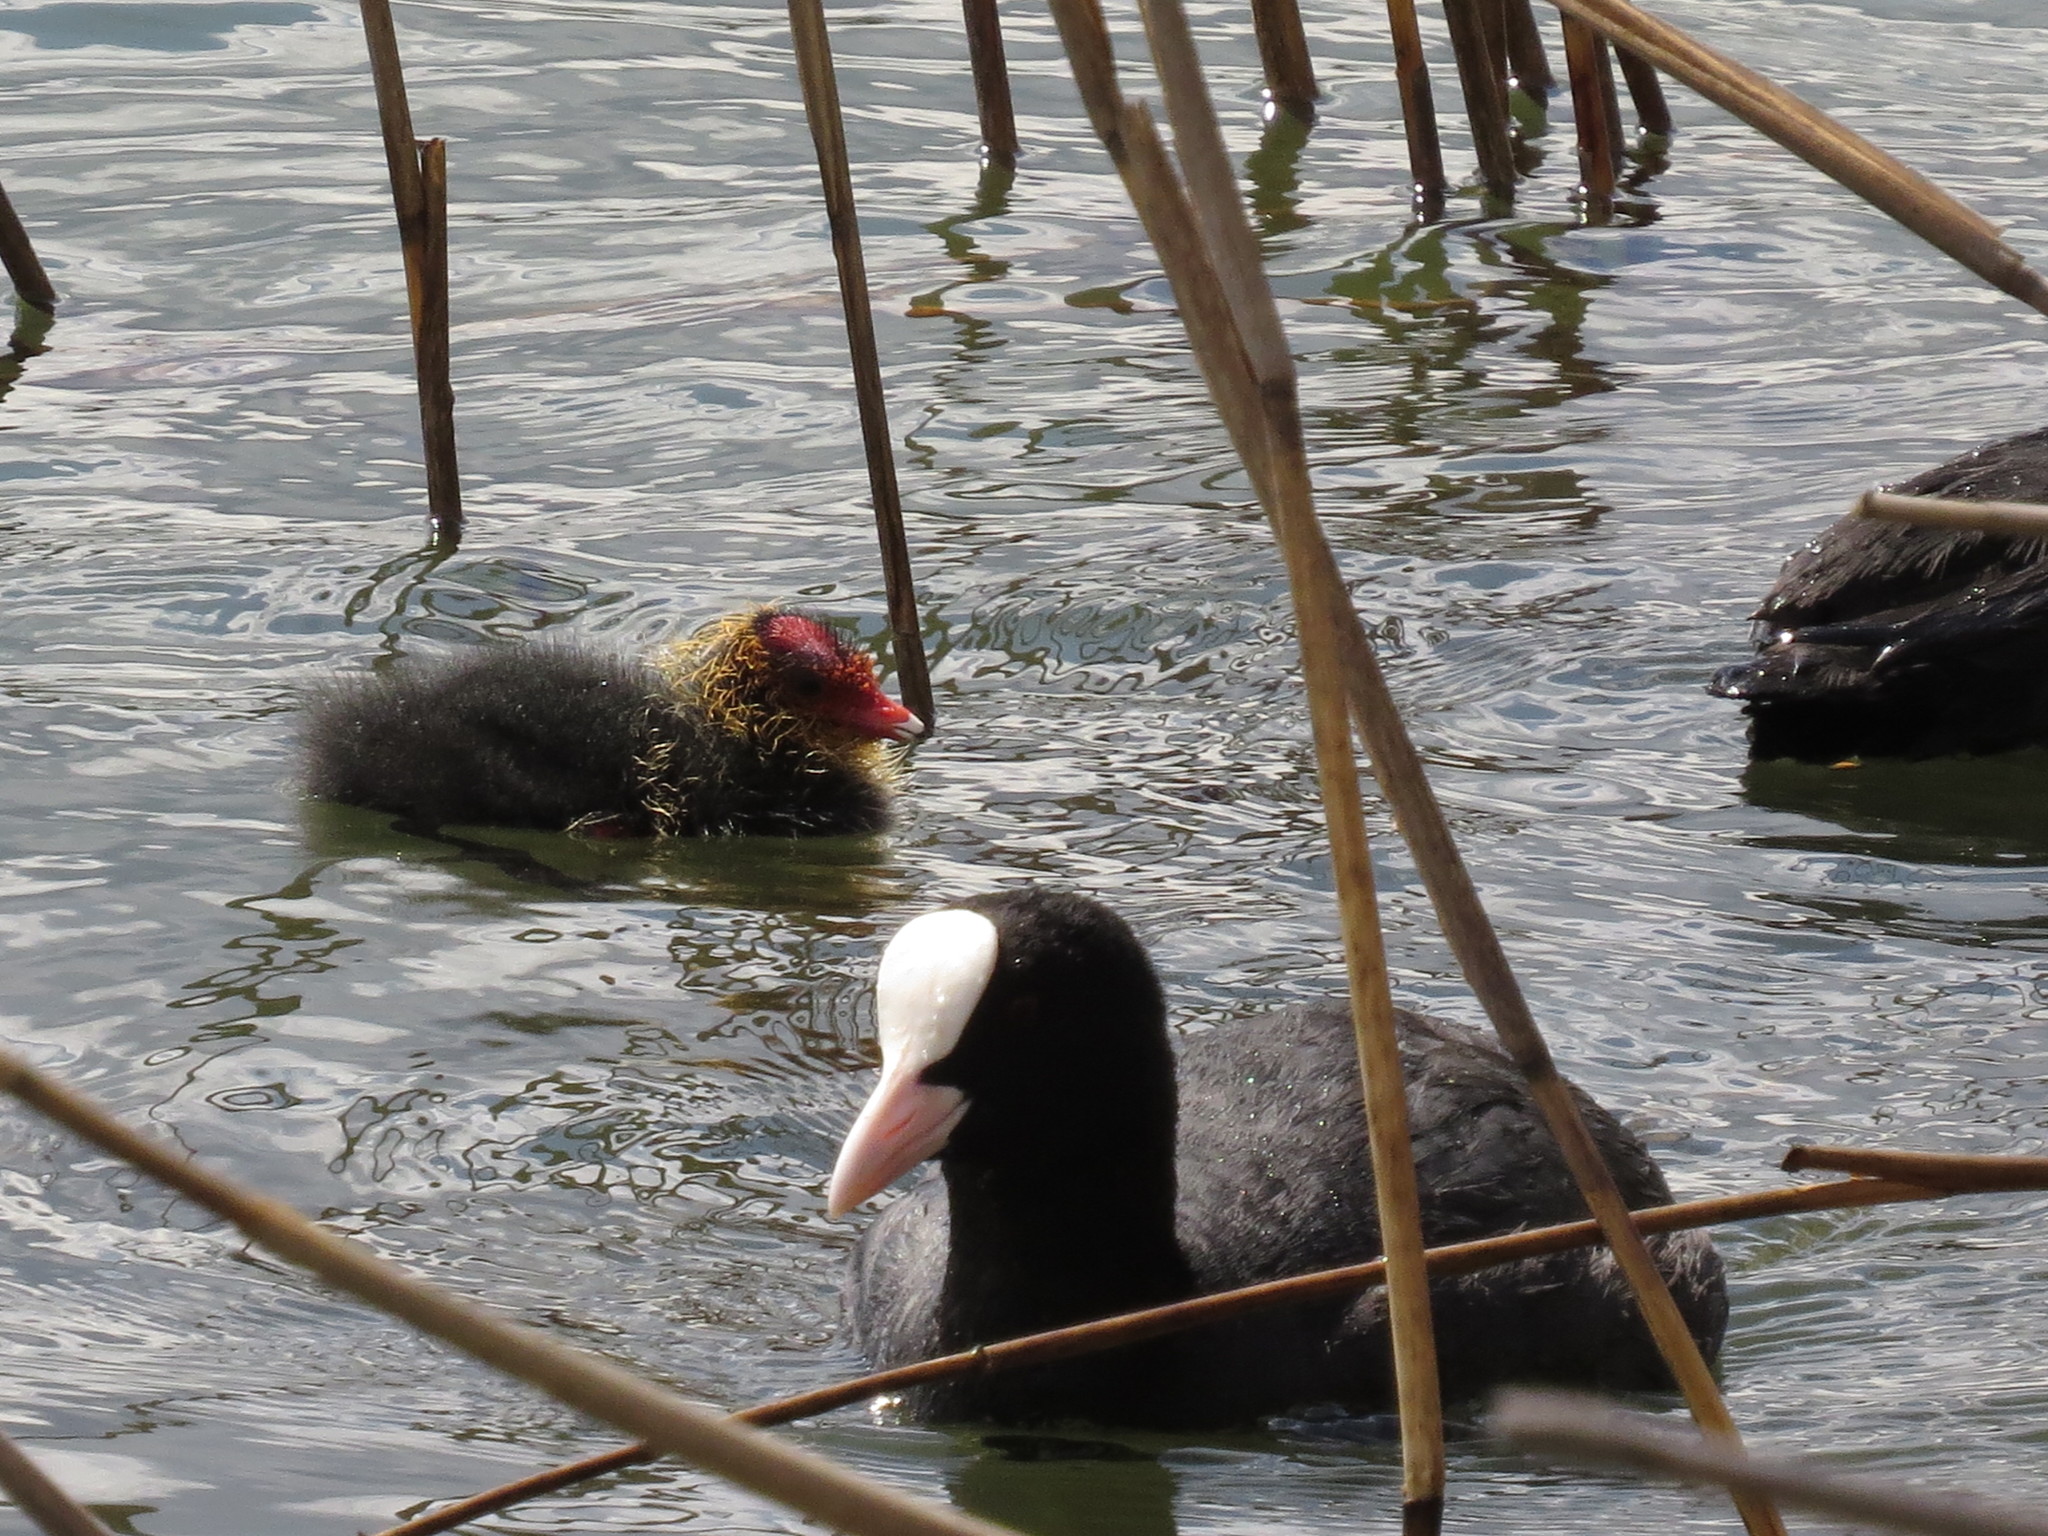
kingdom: Animalia
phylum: Chordata
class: Aves
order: Gruiformes
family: Rallidae
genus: Fulica
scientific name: Fulica atra
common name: Eurasian coot
